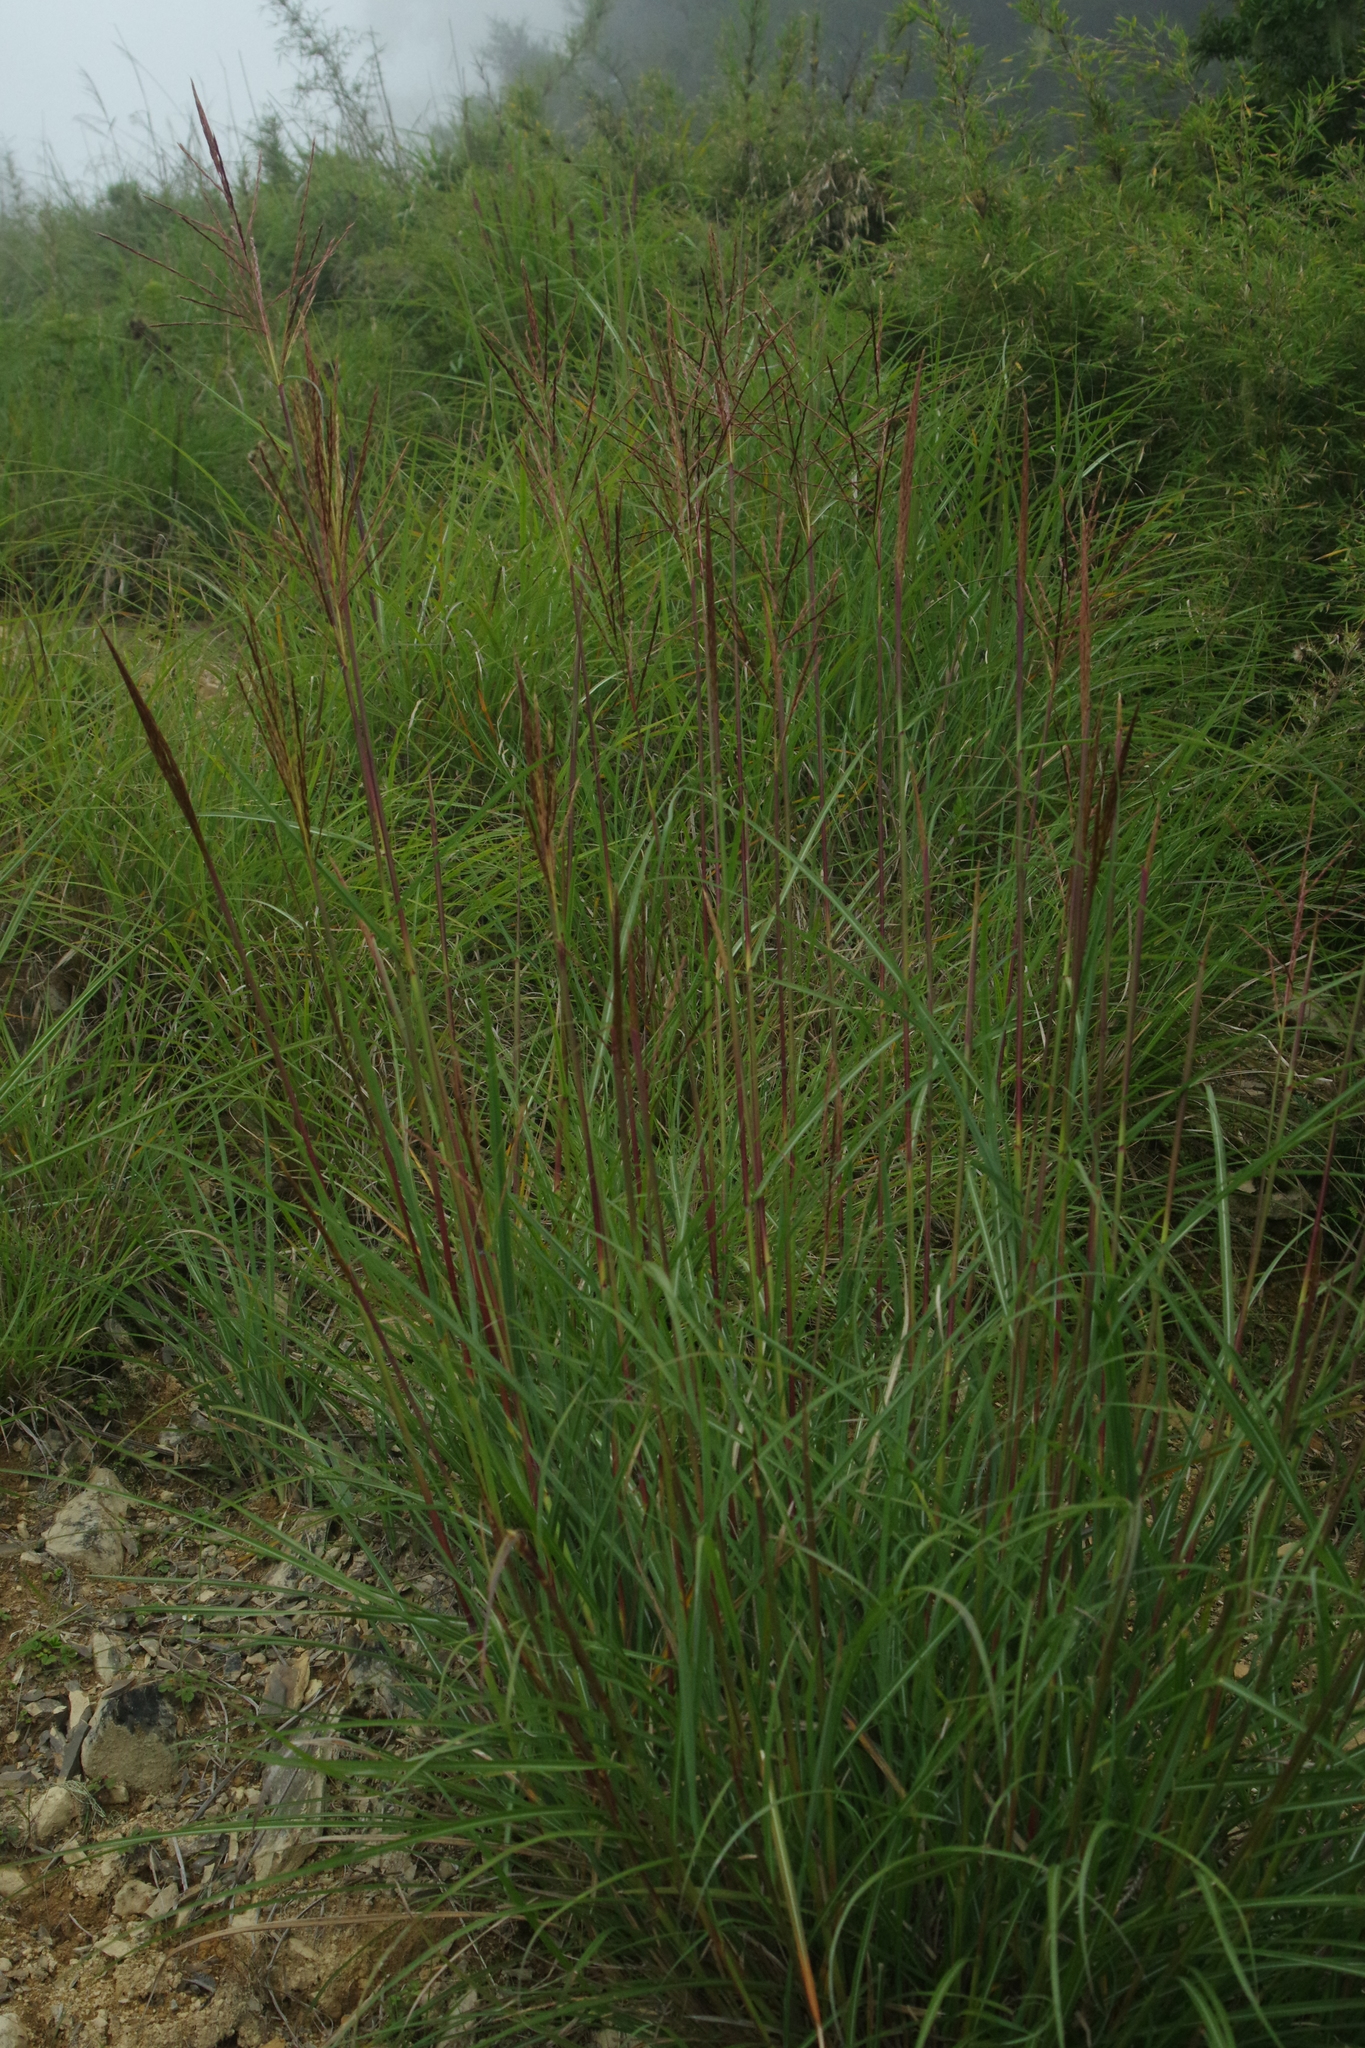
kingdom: Plantae
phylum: Tracheophyta
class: Liliopsida
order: Poales
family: Poaceae
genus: Miscanthus
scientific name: Miscanthus sinensis
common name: Chinese silvergrass
